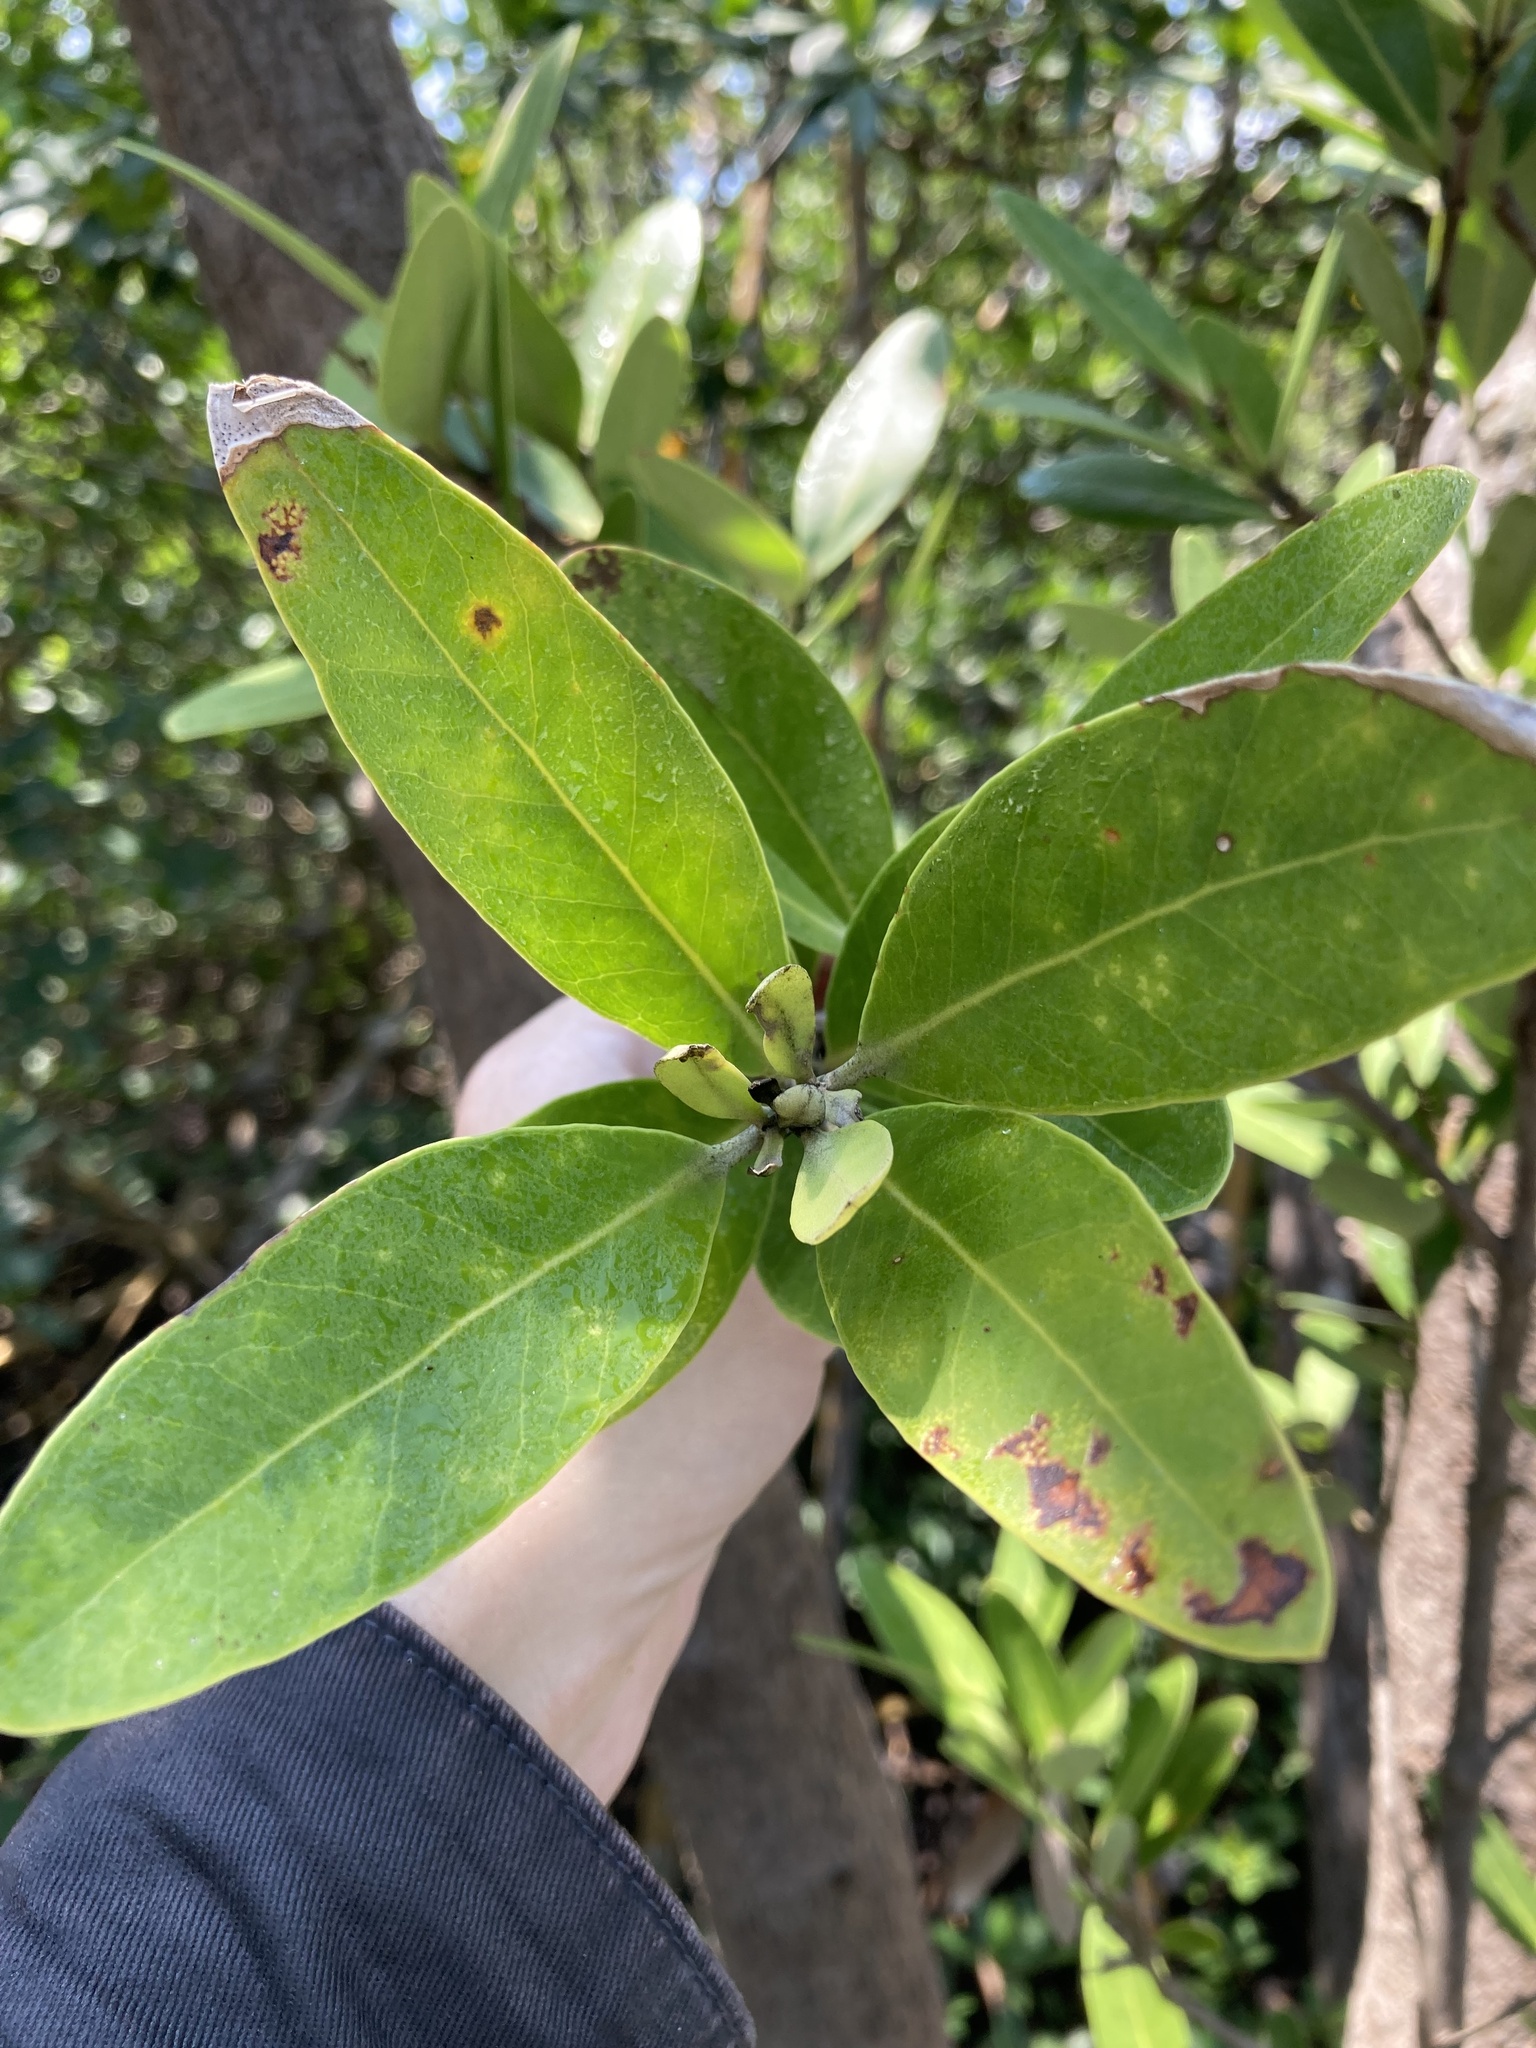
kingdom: Plantae
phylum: Tracheophyta
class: Magnoliopsida
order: Lamiales
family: Acanthaceae
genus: Avicennia
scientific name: Avicennia germinans
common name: Black mangrove
